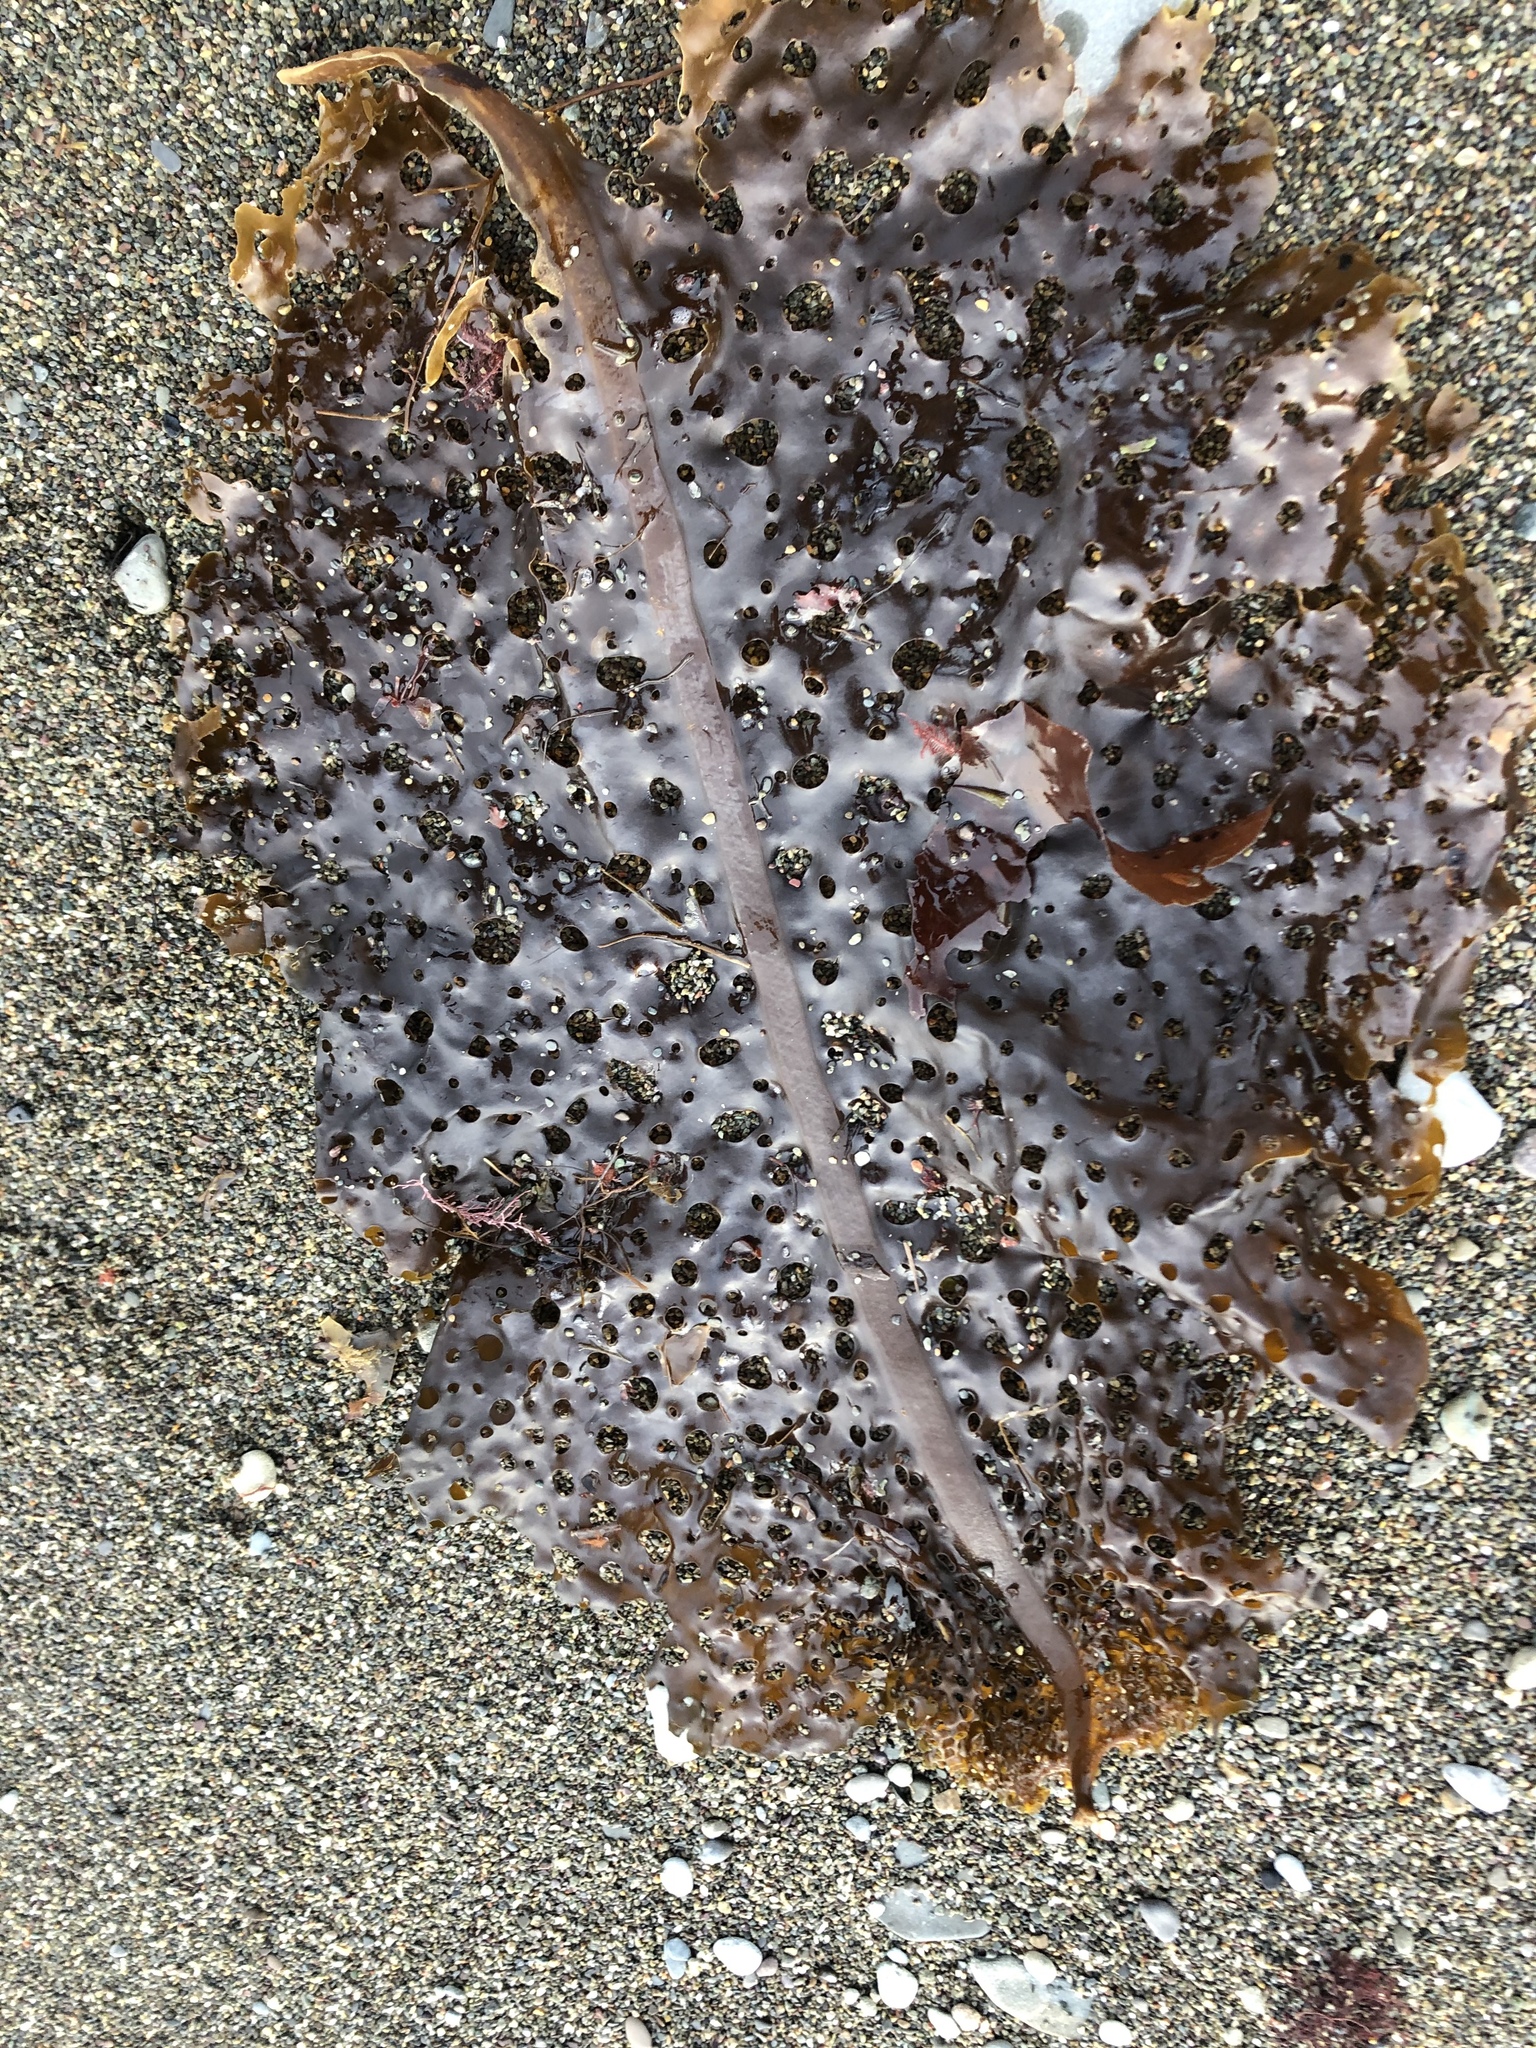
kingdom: Chromista
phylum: Ochrophyta
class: Phaeophyceae
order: Laminariales
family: Costariaceae
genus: Agarum
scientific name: Agarum clathratum
